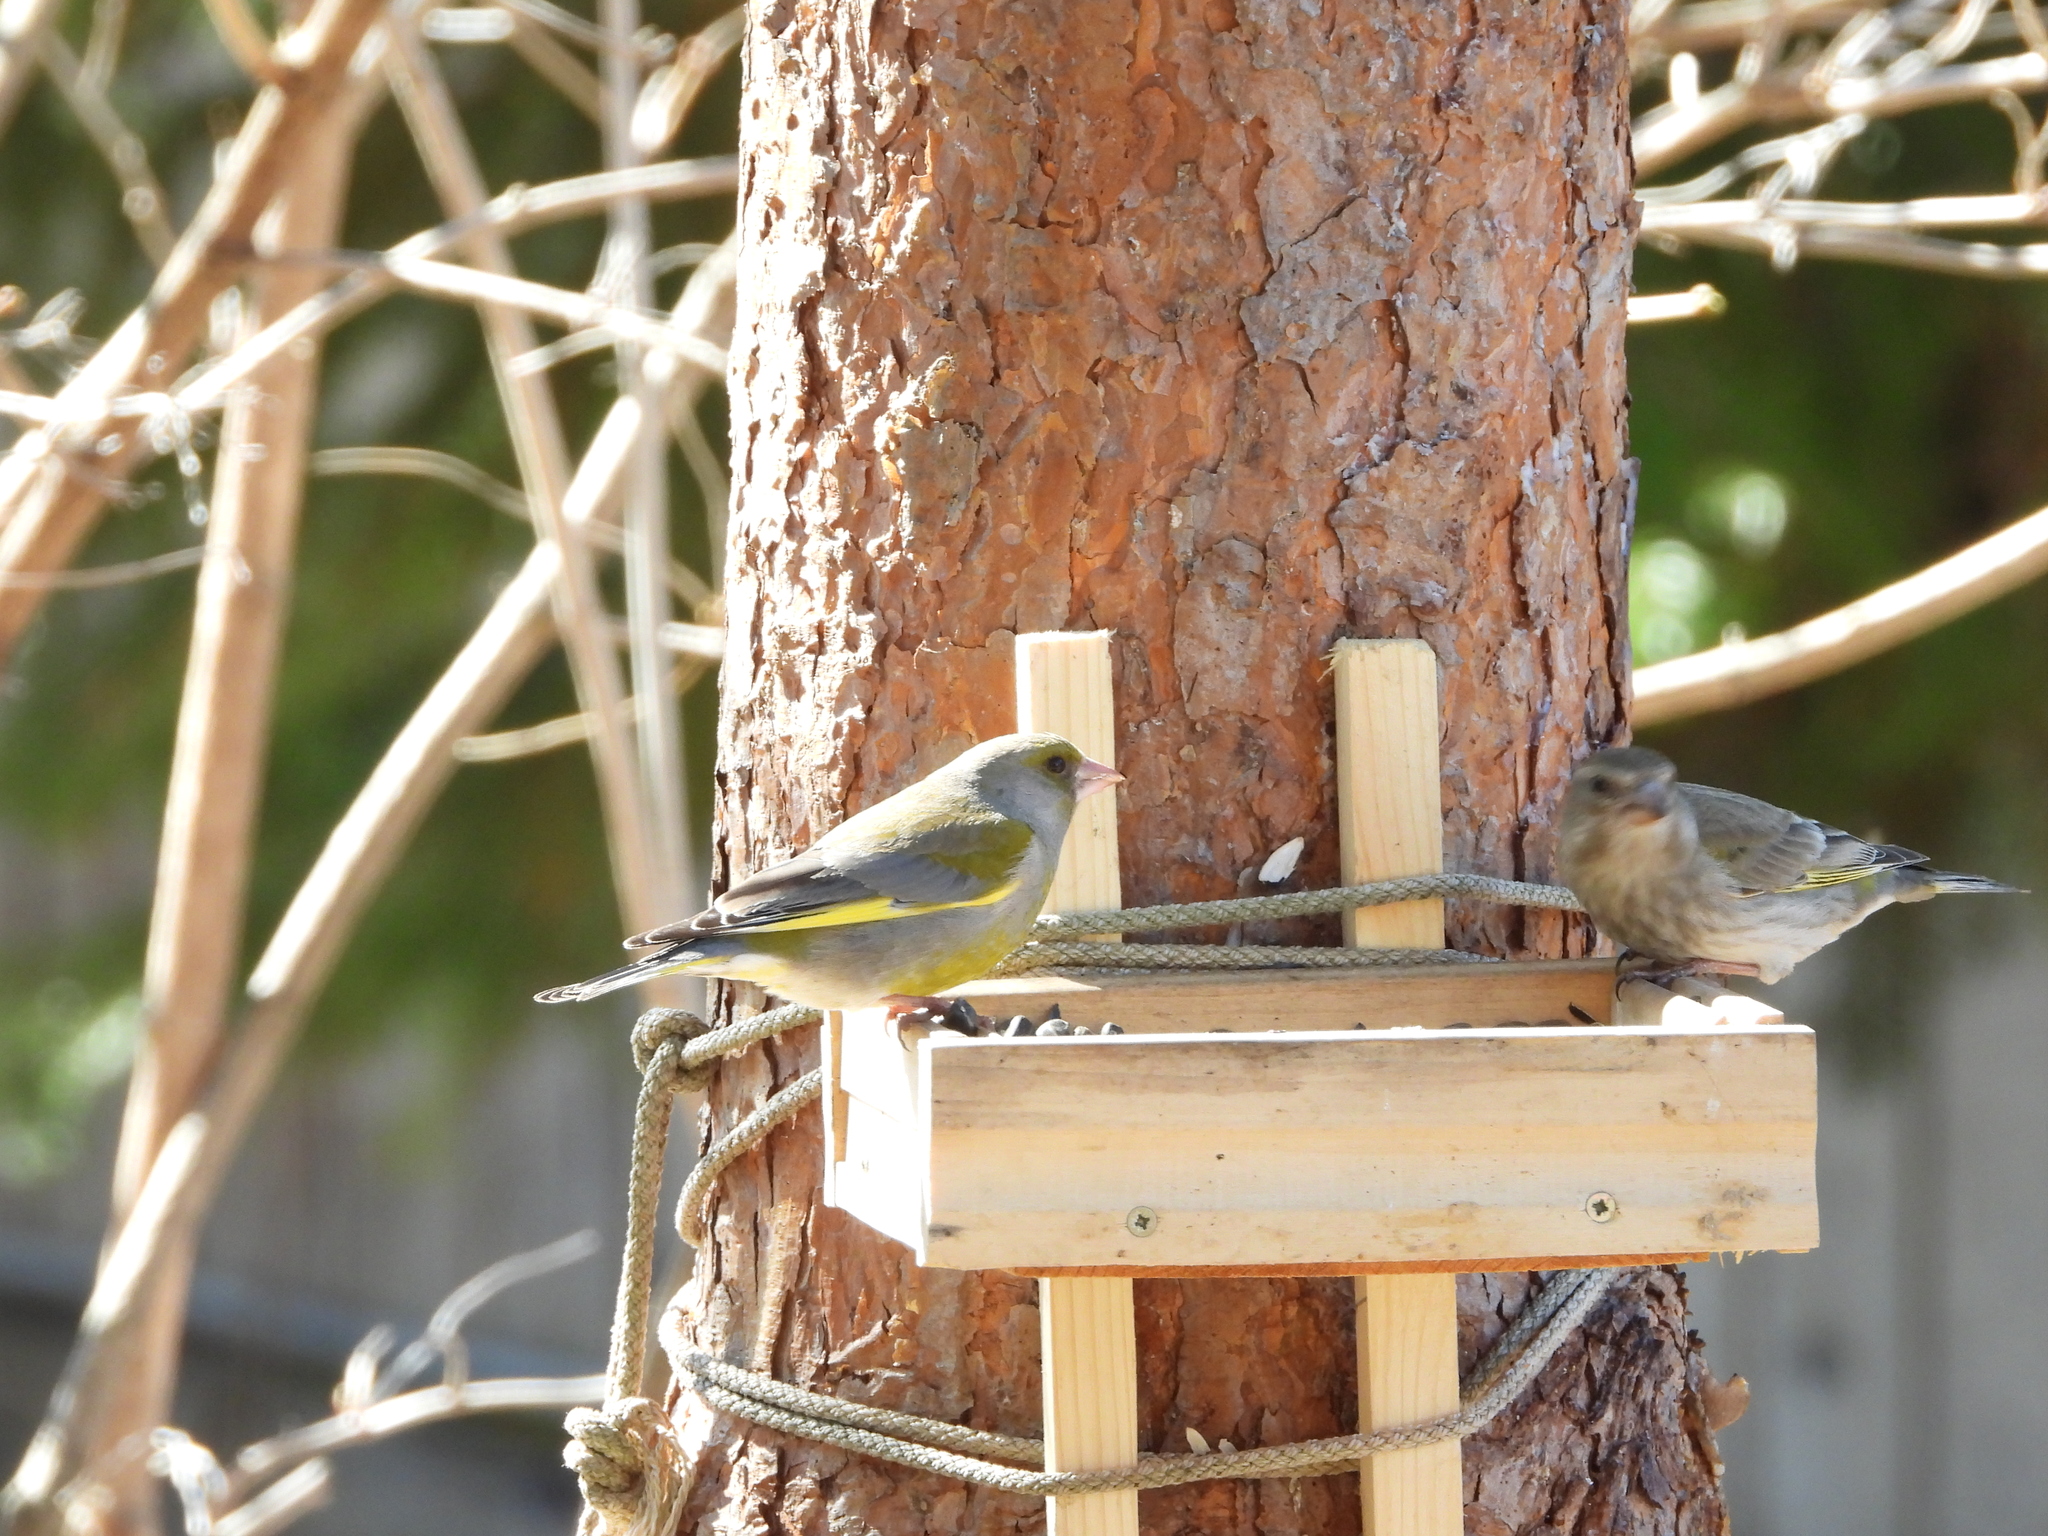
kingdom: Plantae
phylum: Tracheophyta
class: Liliopsida
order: Poales
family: Poaceae
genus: Chloris
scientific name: Chloris chloris
